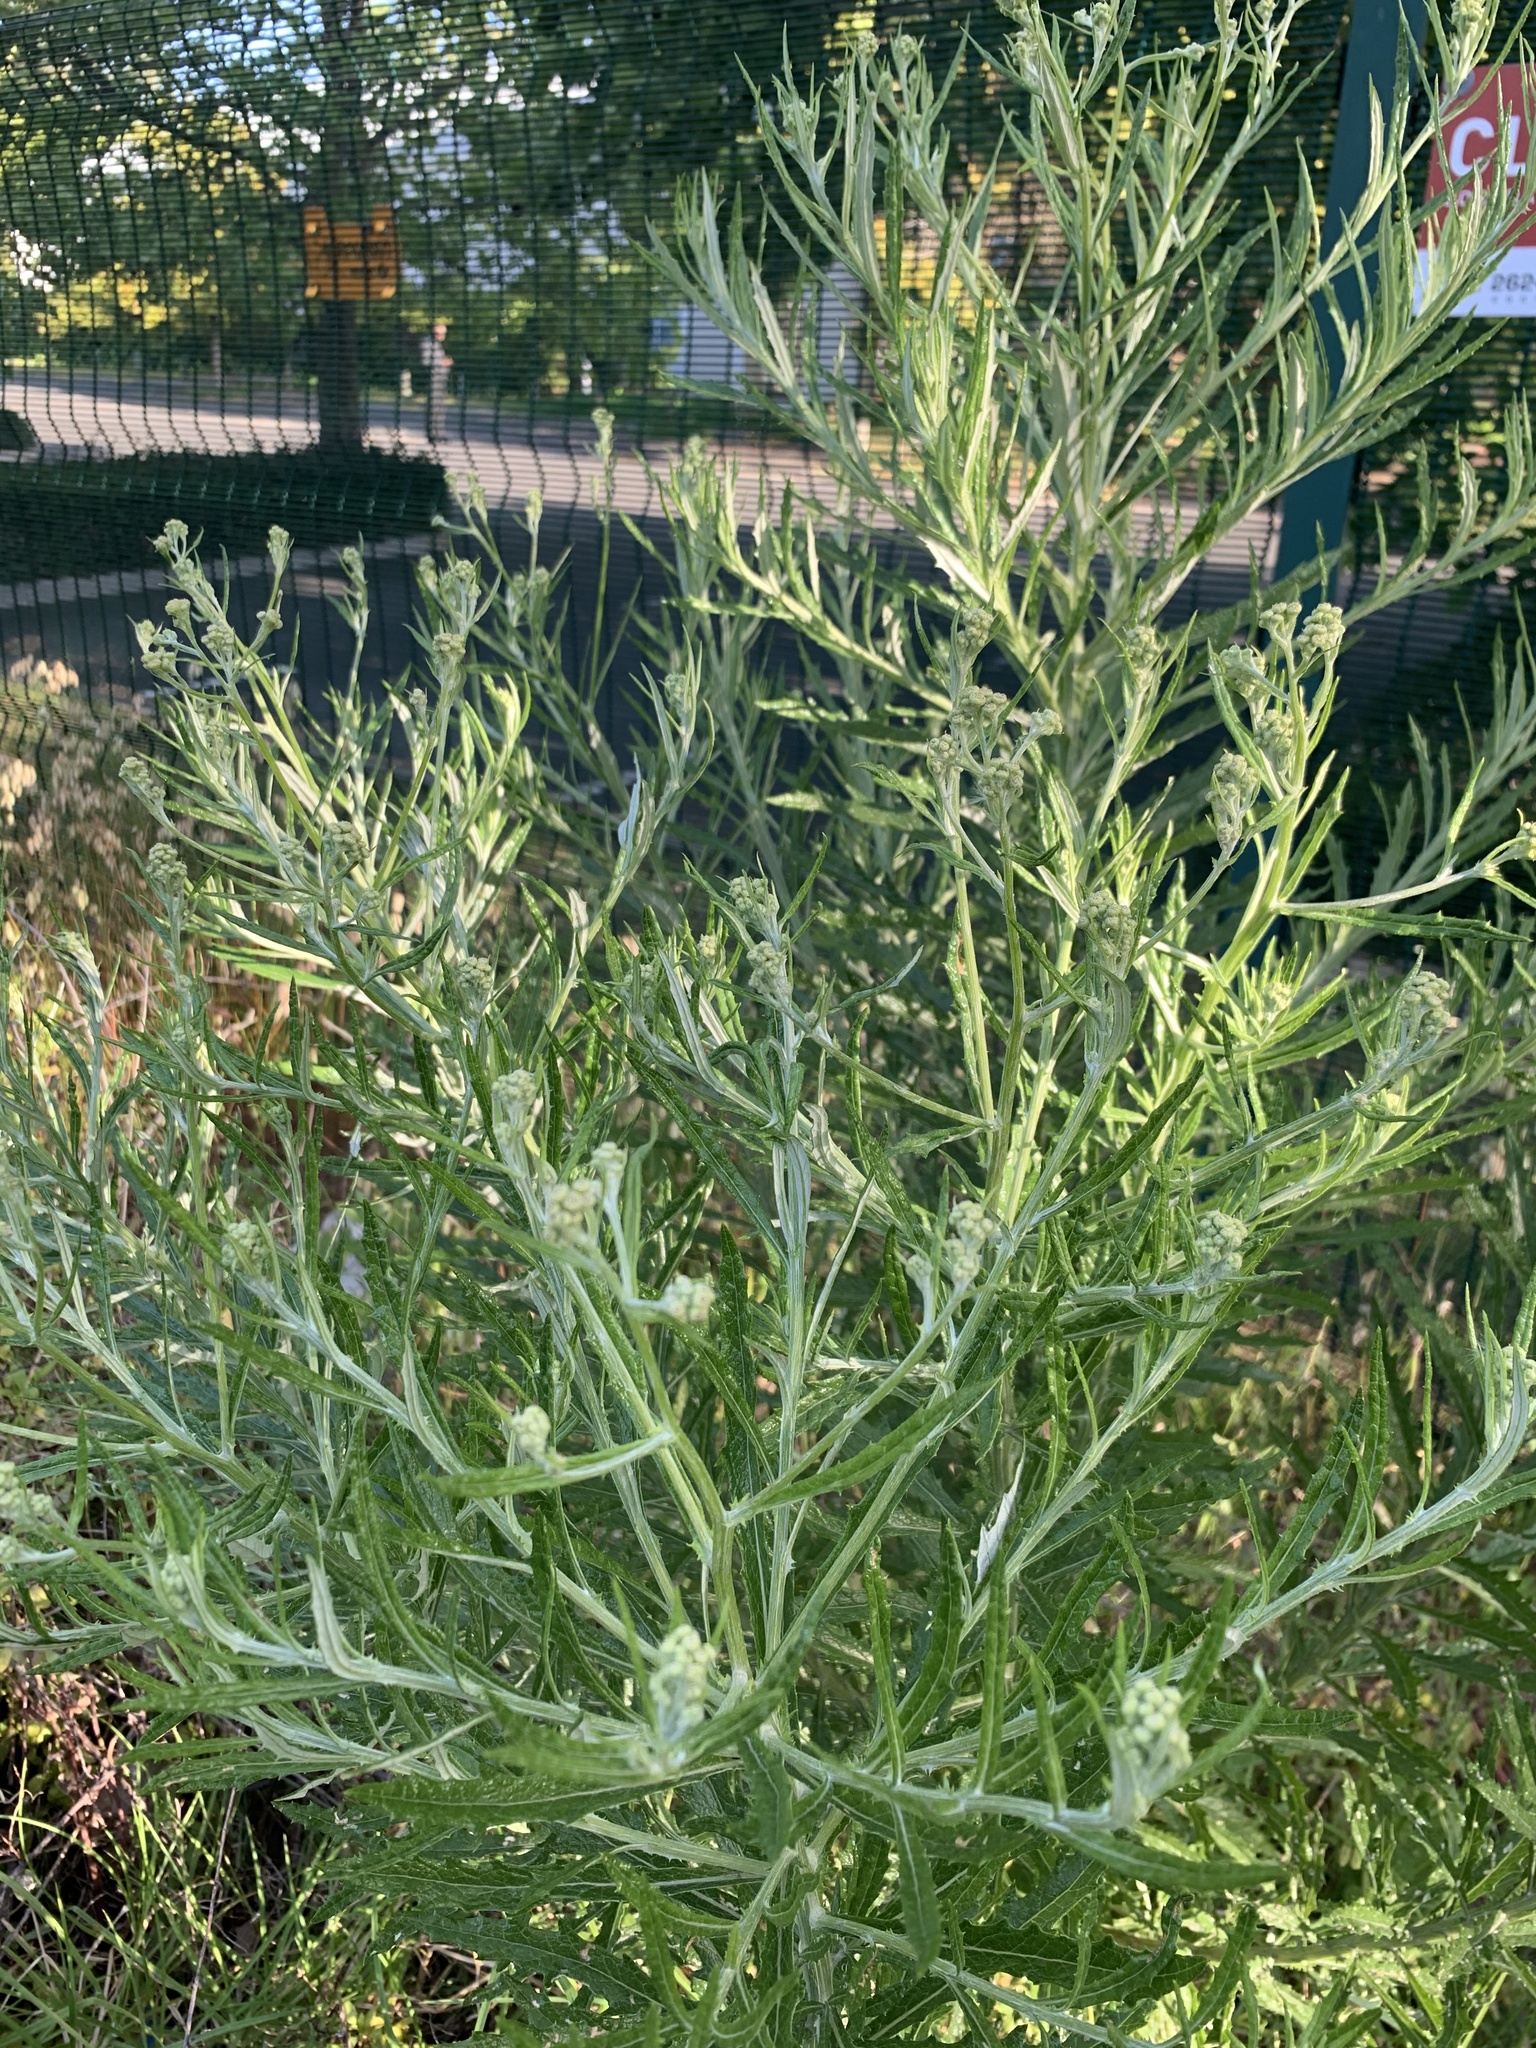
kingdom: Plantae
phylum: Tracheophyta
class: Magnoliopsida
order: Asterales
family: Asteraceae
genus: Senecio
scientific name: Senecio pterophorus
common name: Shoddy ragwort
